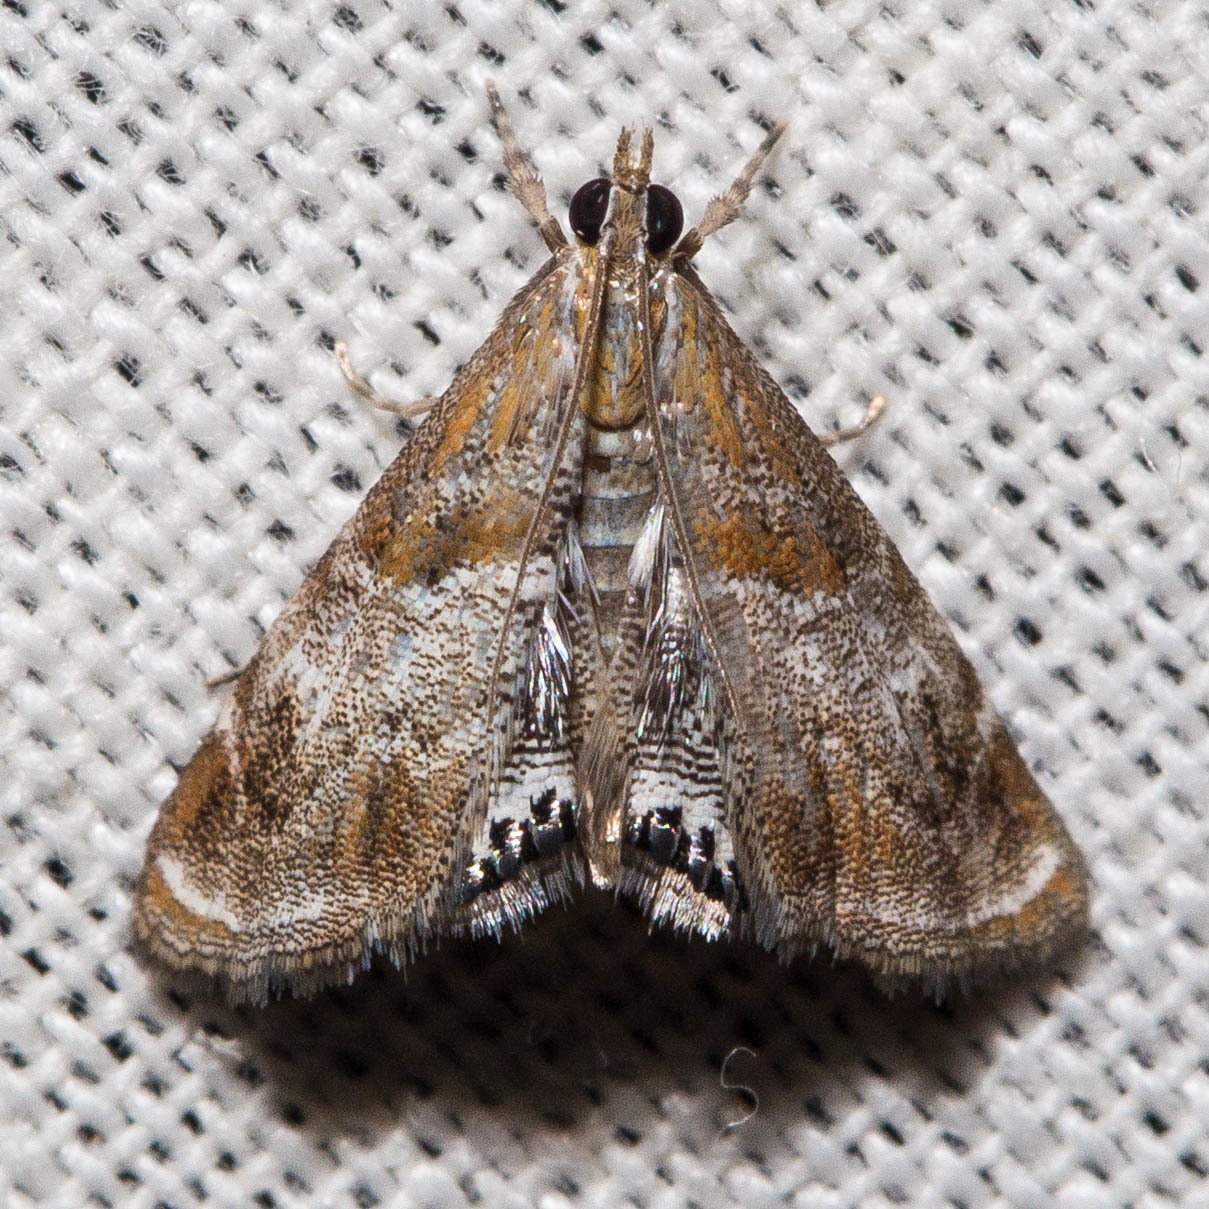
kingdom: Animalia
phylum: Arthropoda
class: Insecta
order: Lepidoptera
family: Crambidae
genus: Dicymolomia
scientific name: Dicymolomia metalliferalis
